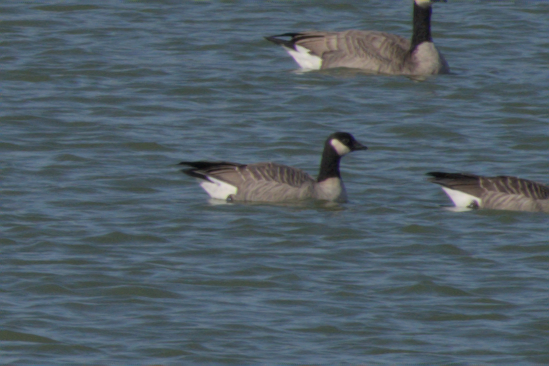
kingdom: Animalia
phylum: Chordata
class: Aves
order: Anseriformes
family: Anatidae
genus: Branta
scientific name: Branta hutchinsii
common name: Cackling goose
